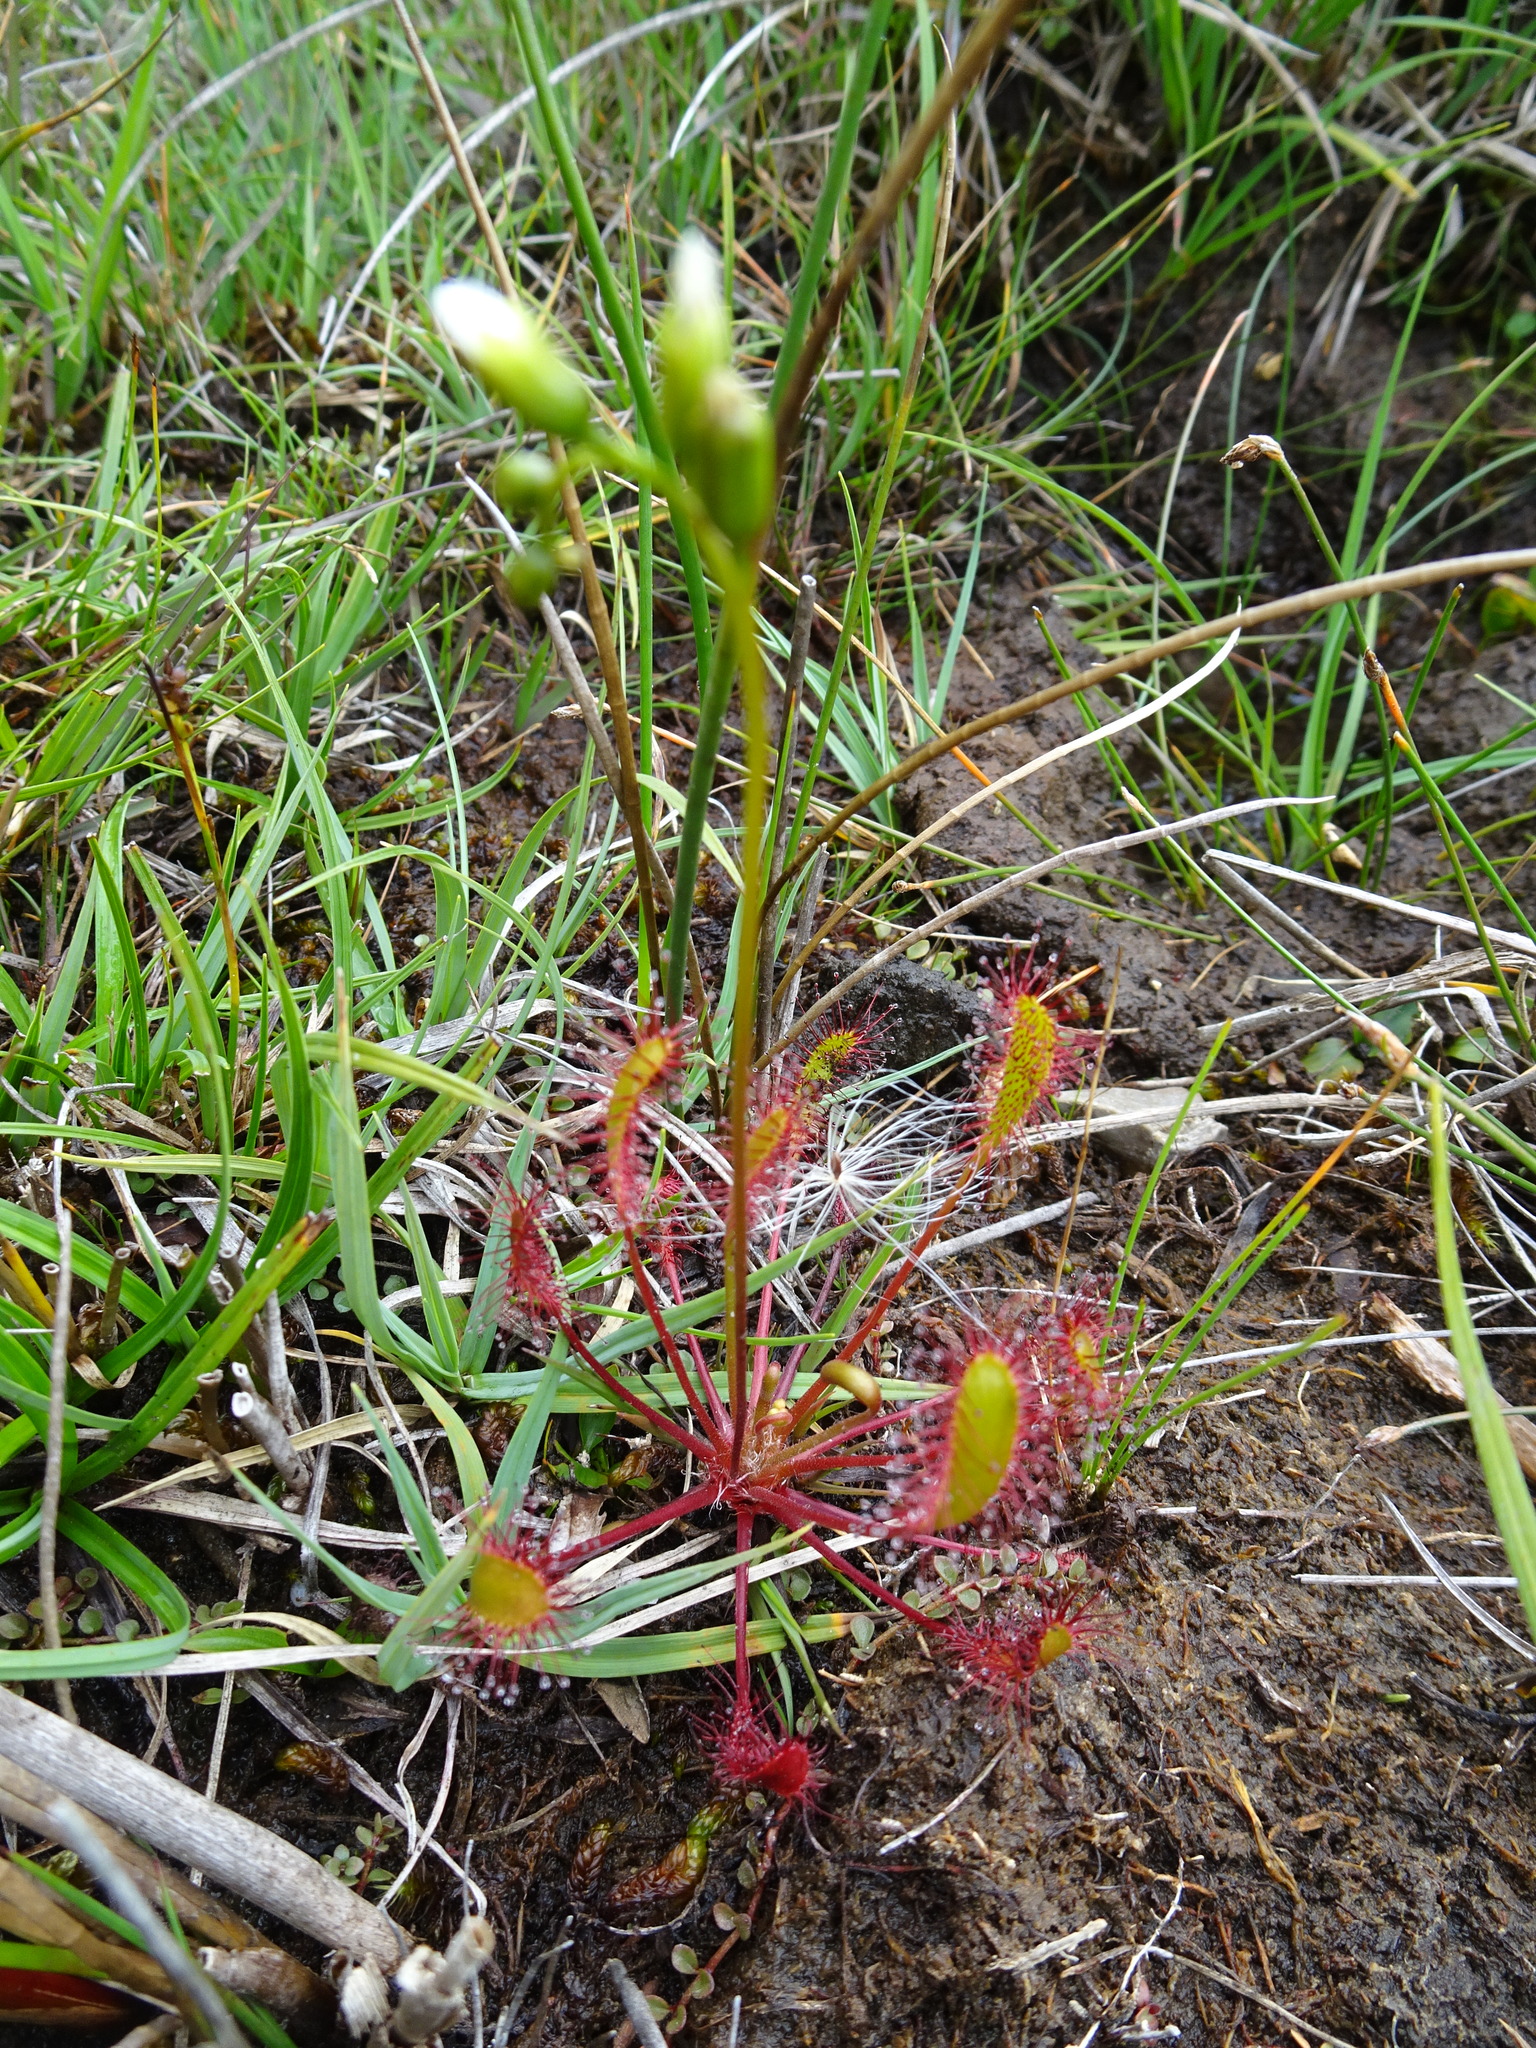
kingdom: Plantae
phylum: Tracheophyta
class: Magnoliopsida
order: Caryophyllales
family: Droseraceae
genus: Drosera
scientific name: Drosera obovata
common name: Ivan's paddle
